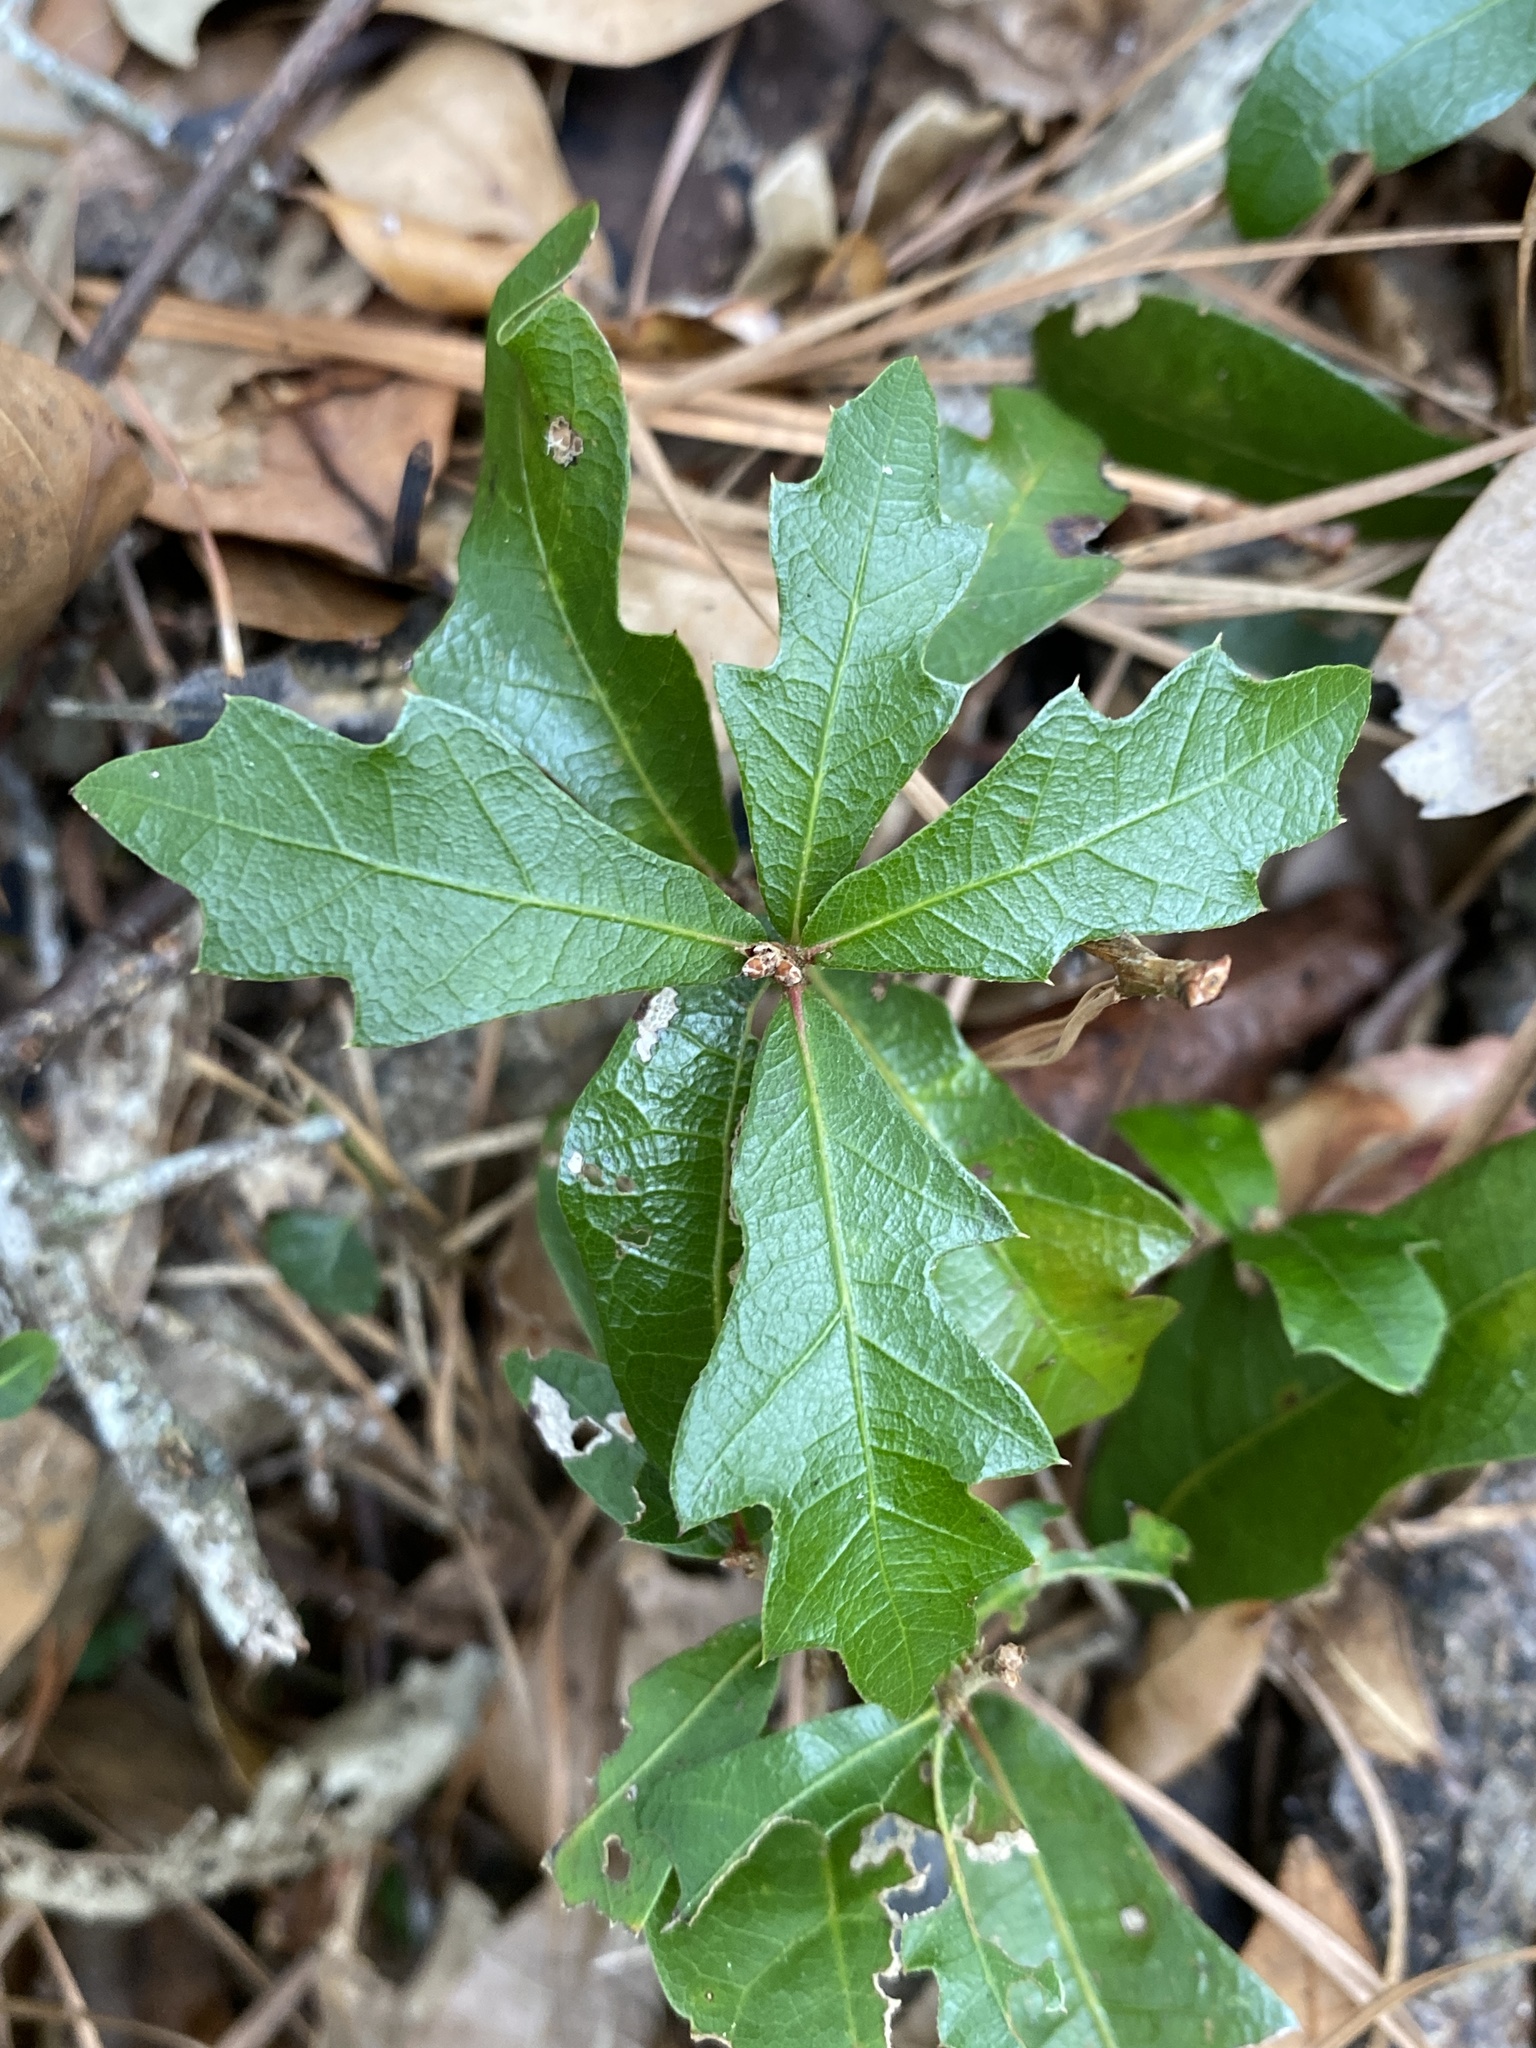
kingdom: Plantae
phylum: Tracheophyta
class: Magnoliopsida
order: Fagales
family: Fagaceae
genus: Quercus
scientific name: Quercus hemisphaerica
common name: Darlington oak
